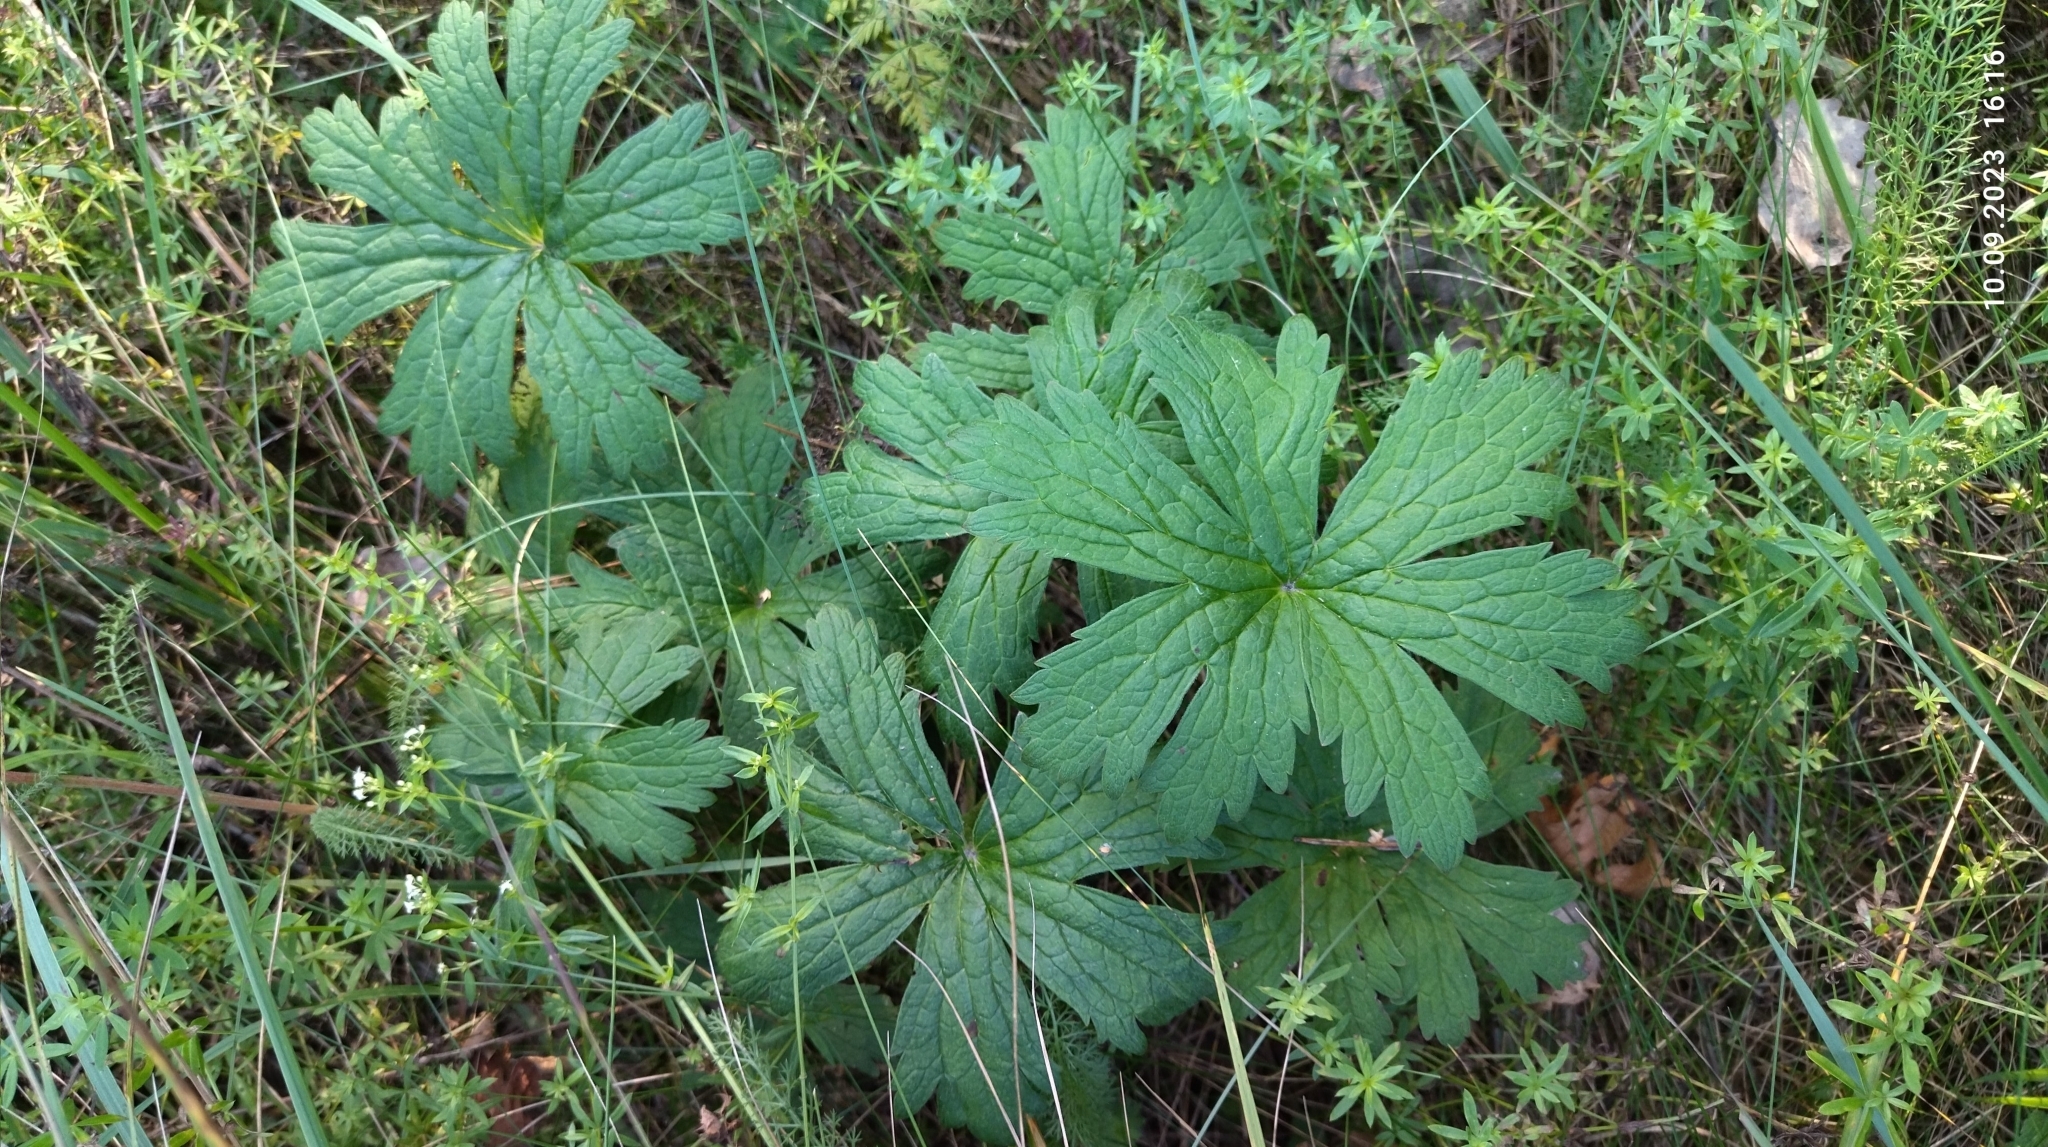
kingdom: Plantae
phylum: Tracheophyta
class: Magnoliopsida
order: Geraniales
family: Geraniaceae
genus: Geranium
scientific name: Geranium sylvaticum
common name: Wood crane's-bill
